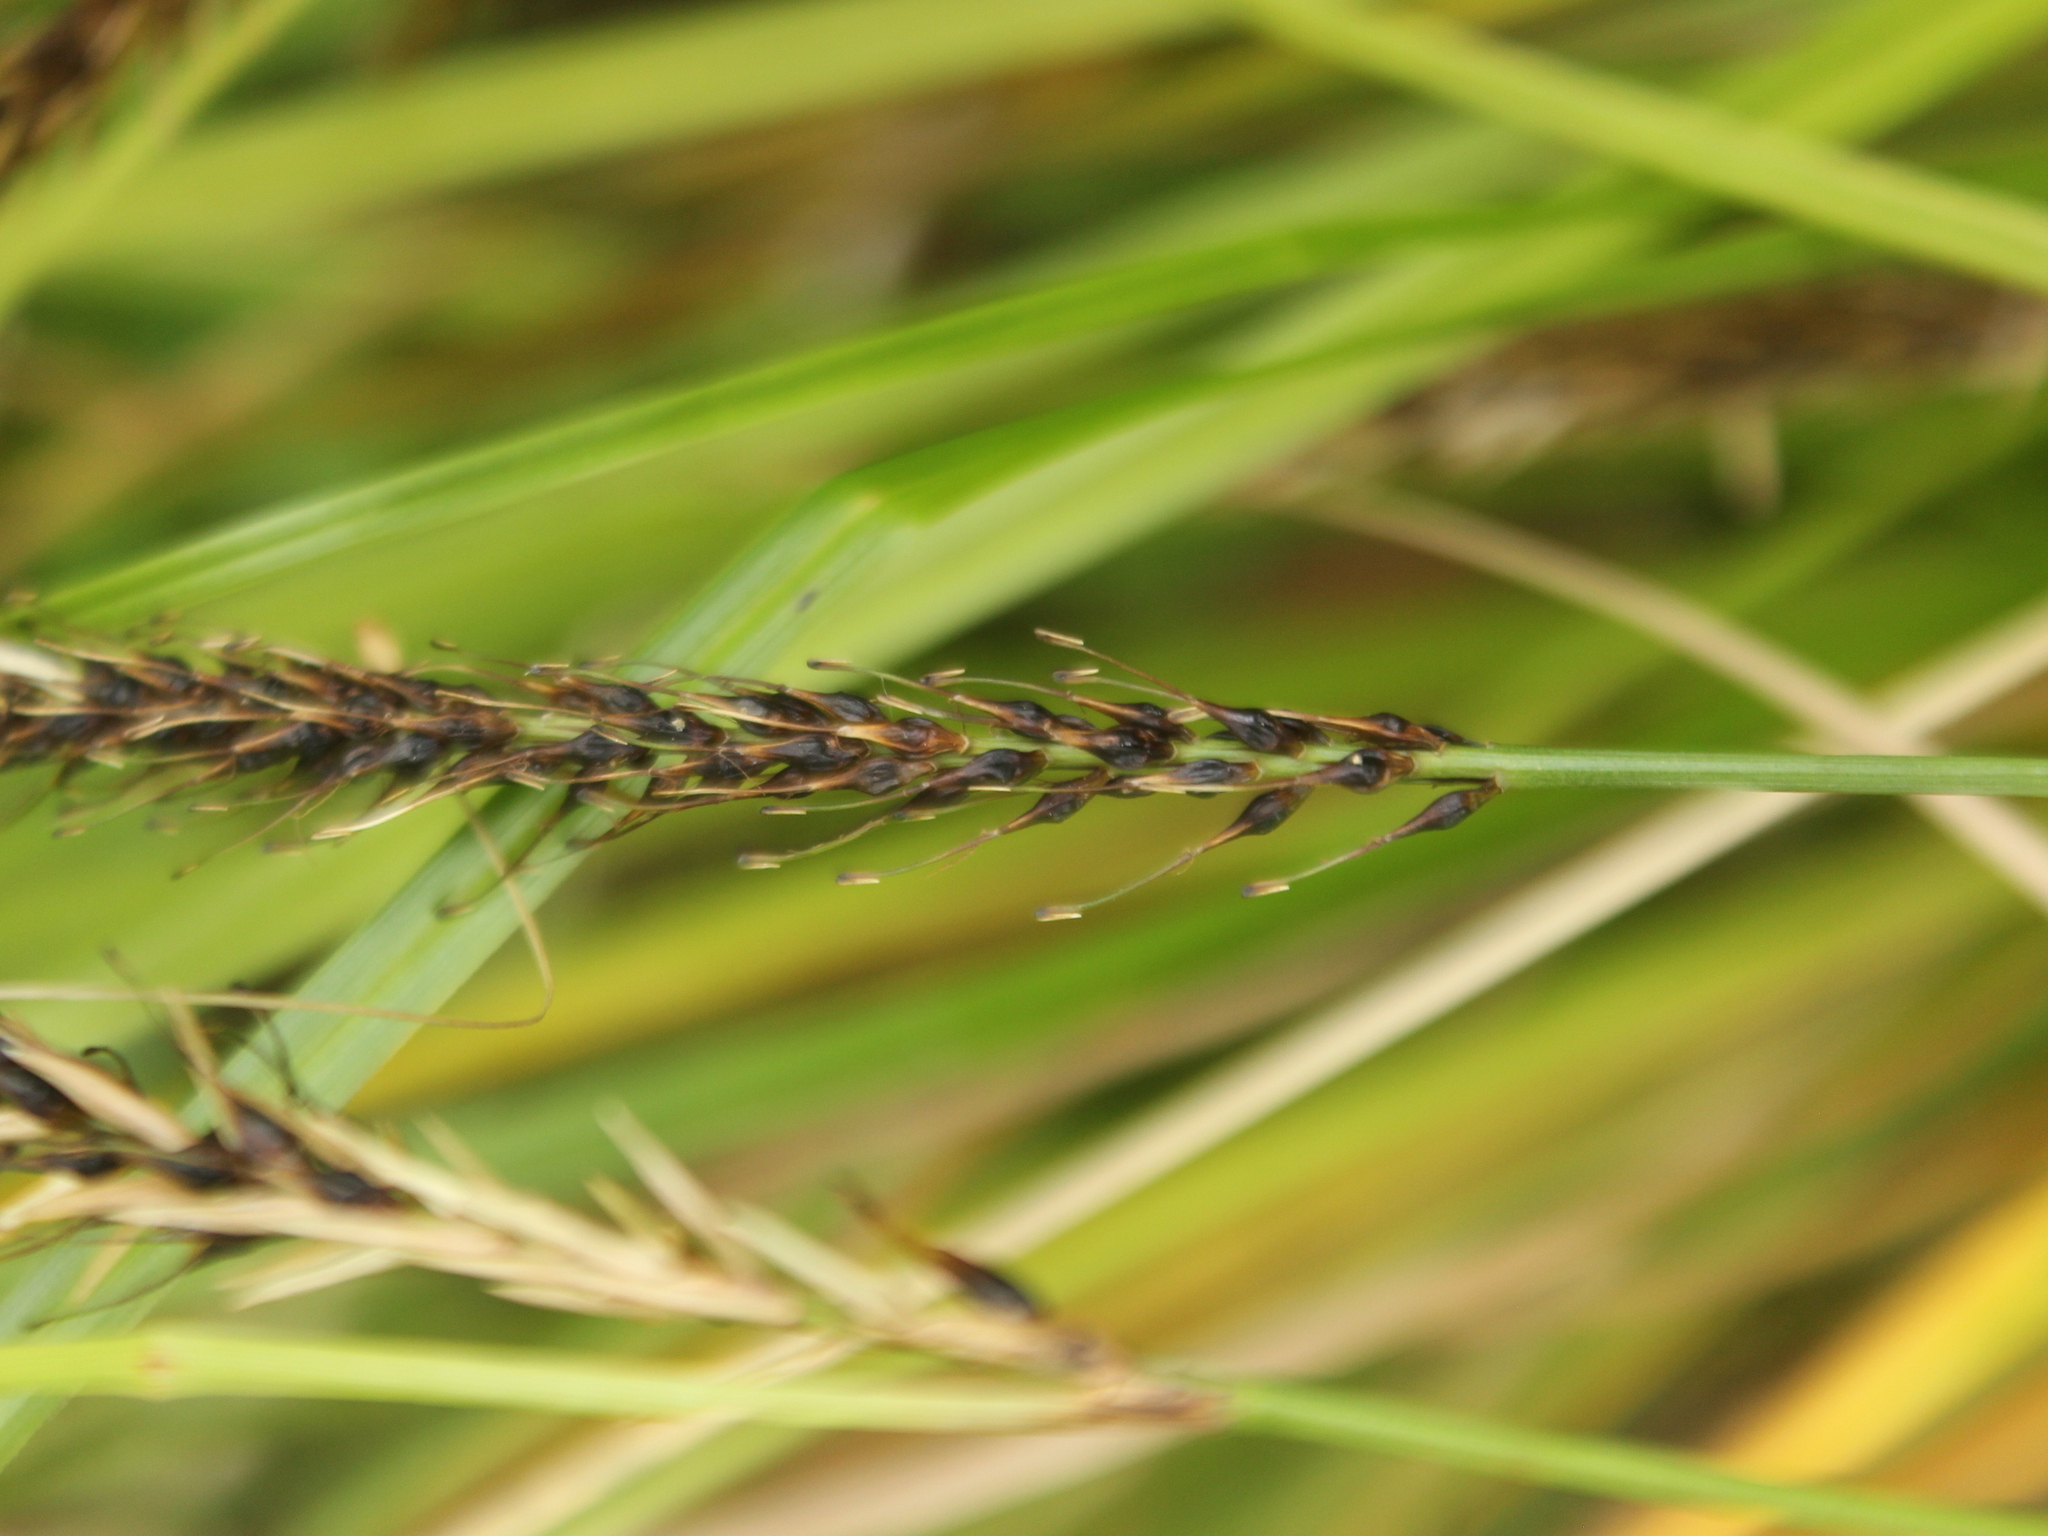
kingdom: Plantae
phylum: Tracheophyta
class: Liliopsida
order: Poales
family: Cyperaceae
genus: Carex
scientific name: Carex megalepis
